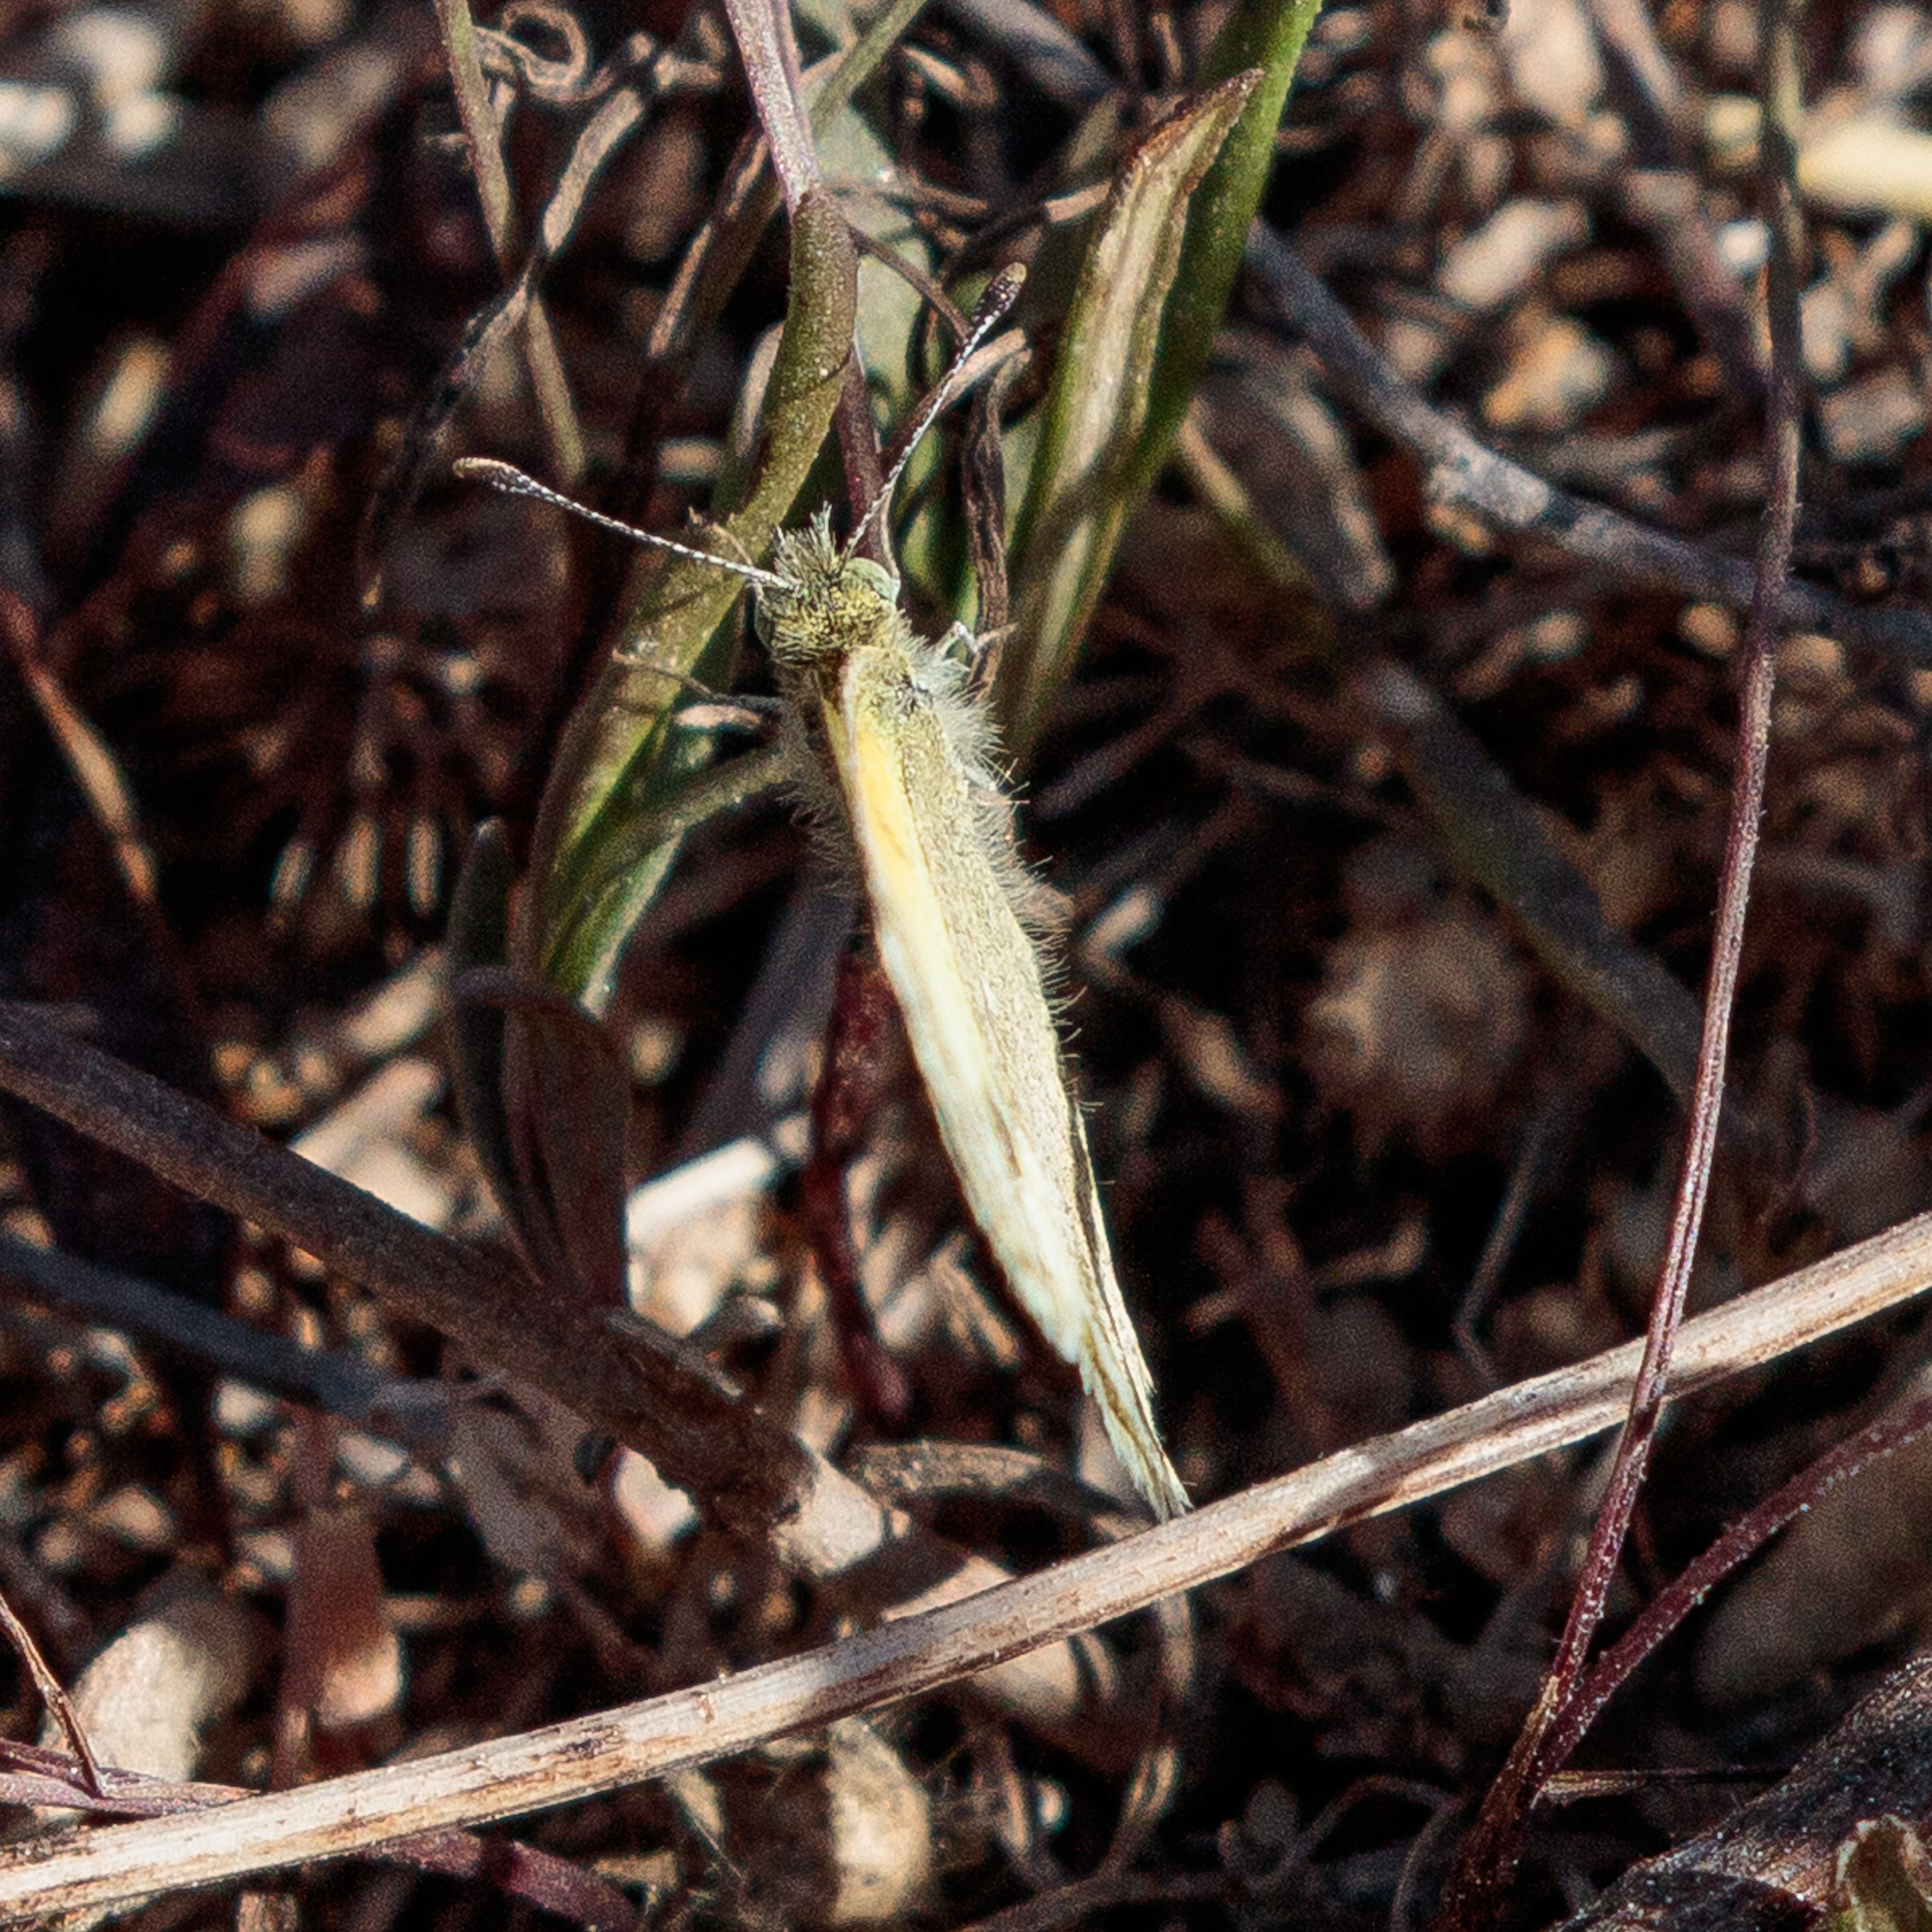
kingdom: Animalia
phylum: Arthropoda
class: Insecta
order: Lepidoptera
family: Pieridae
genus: Nathalis
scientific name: Nathalis iole
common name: Dainty sulphur
